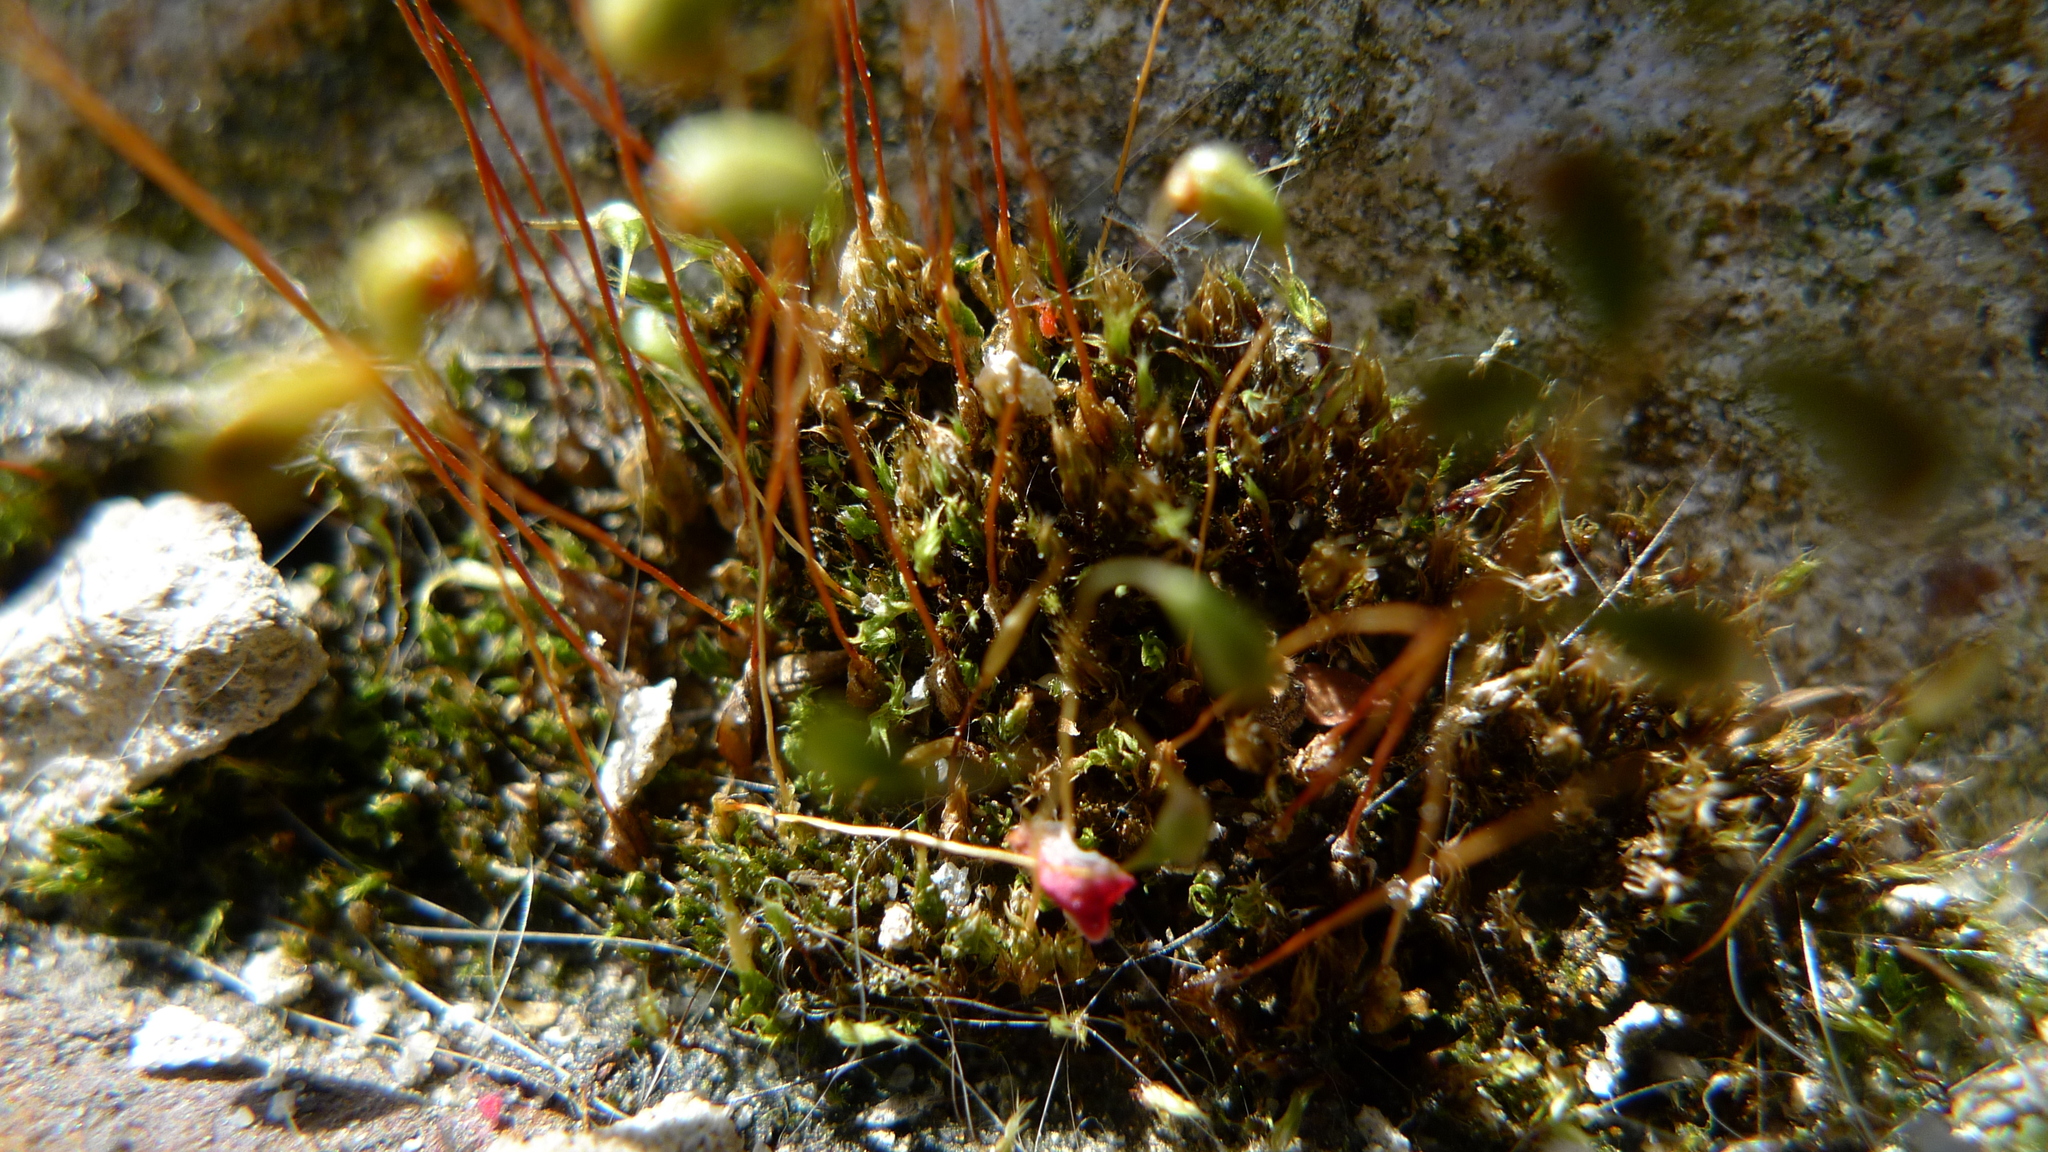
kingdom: Plantae
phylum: Bryophyta
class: Bryopsida
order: Funariales
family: Funariaceae
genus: Funaria
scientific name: Funaria hygrometrica
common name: Common cord moss
